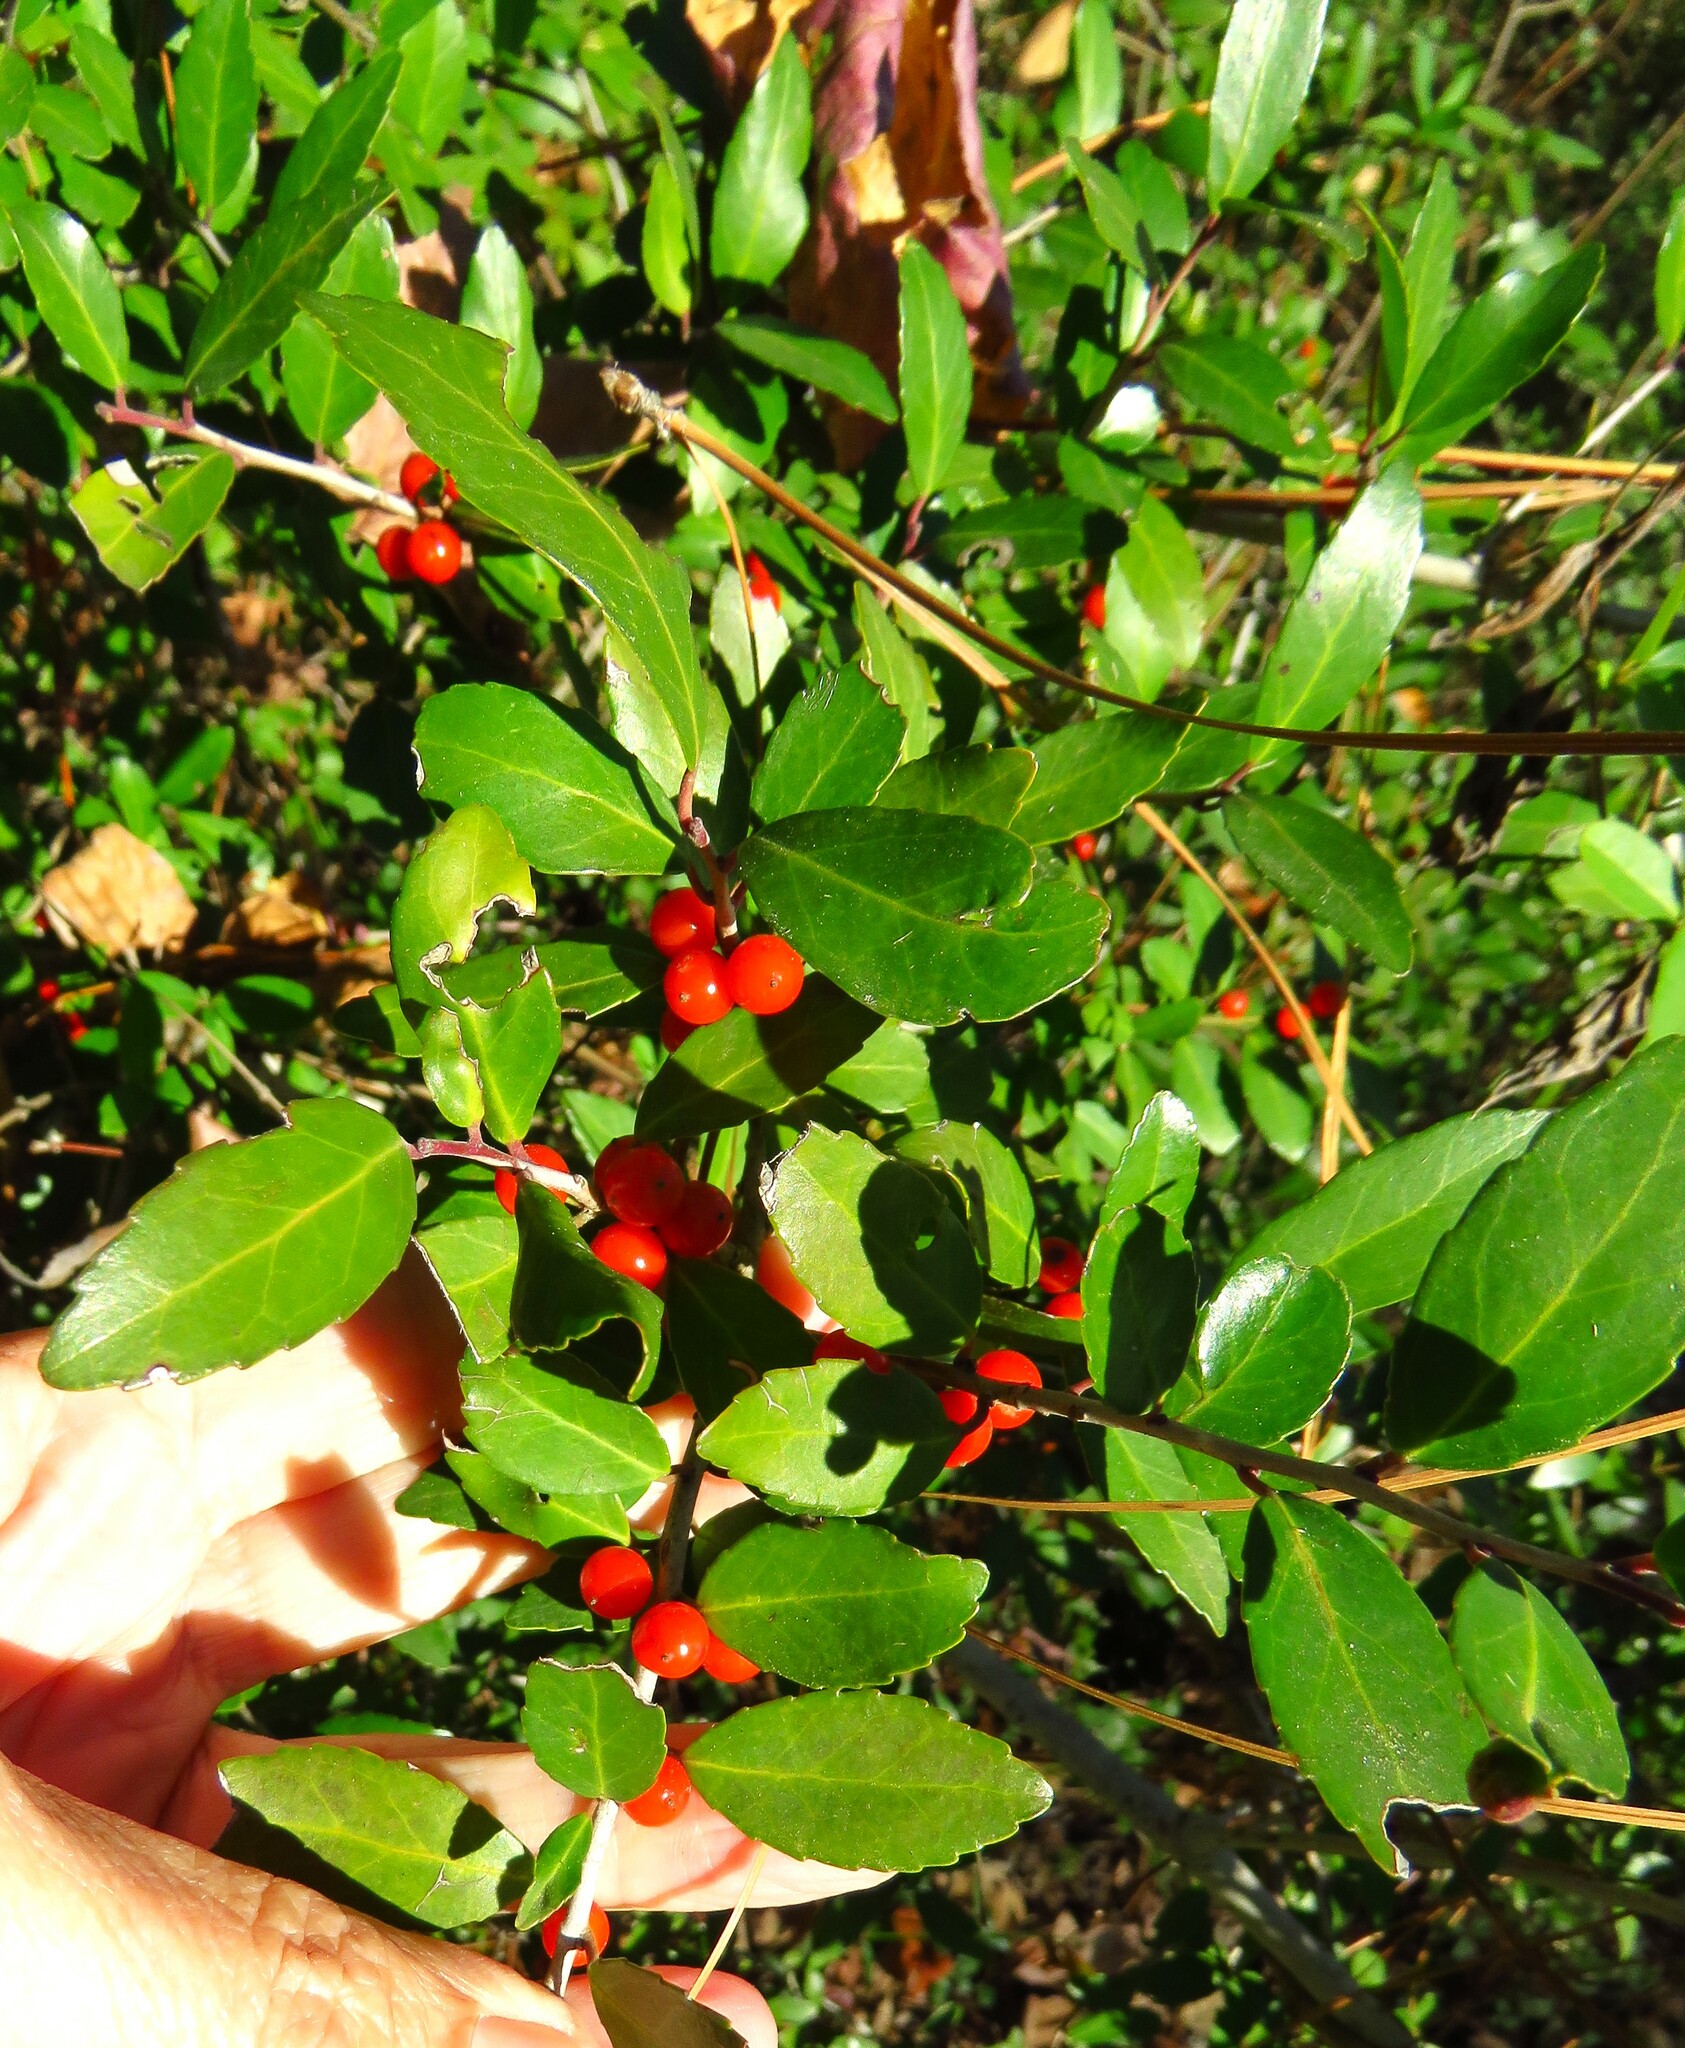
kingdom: Plantae
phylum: Tracheophyta
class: Magnoliopsida
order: Aquifoliales
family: Aquifoliaceae
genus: Ilex
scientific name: Ilex vomitoria
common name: Yaupon holly
